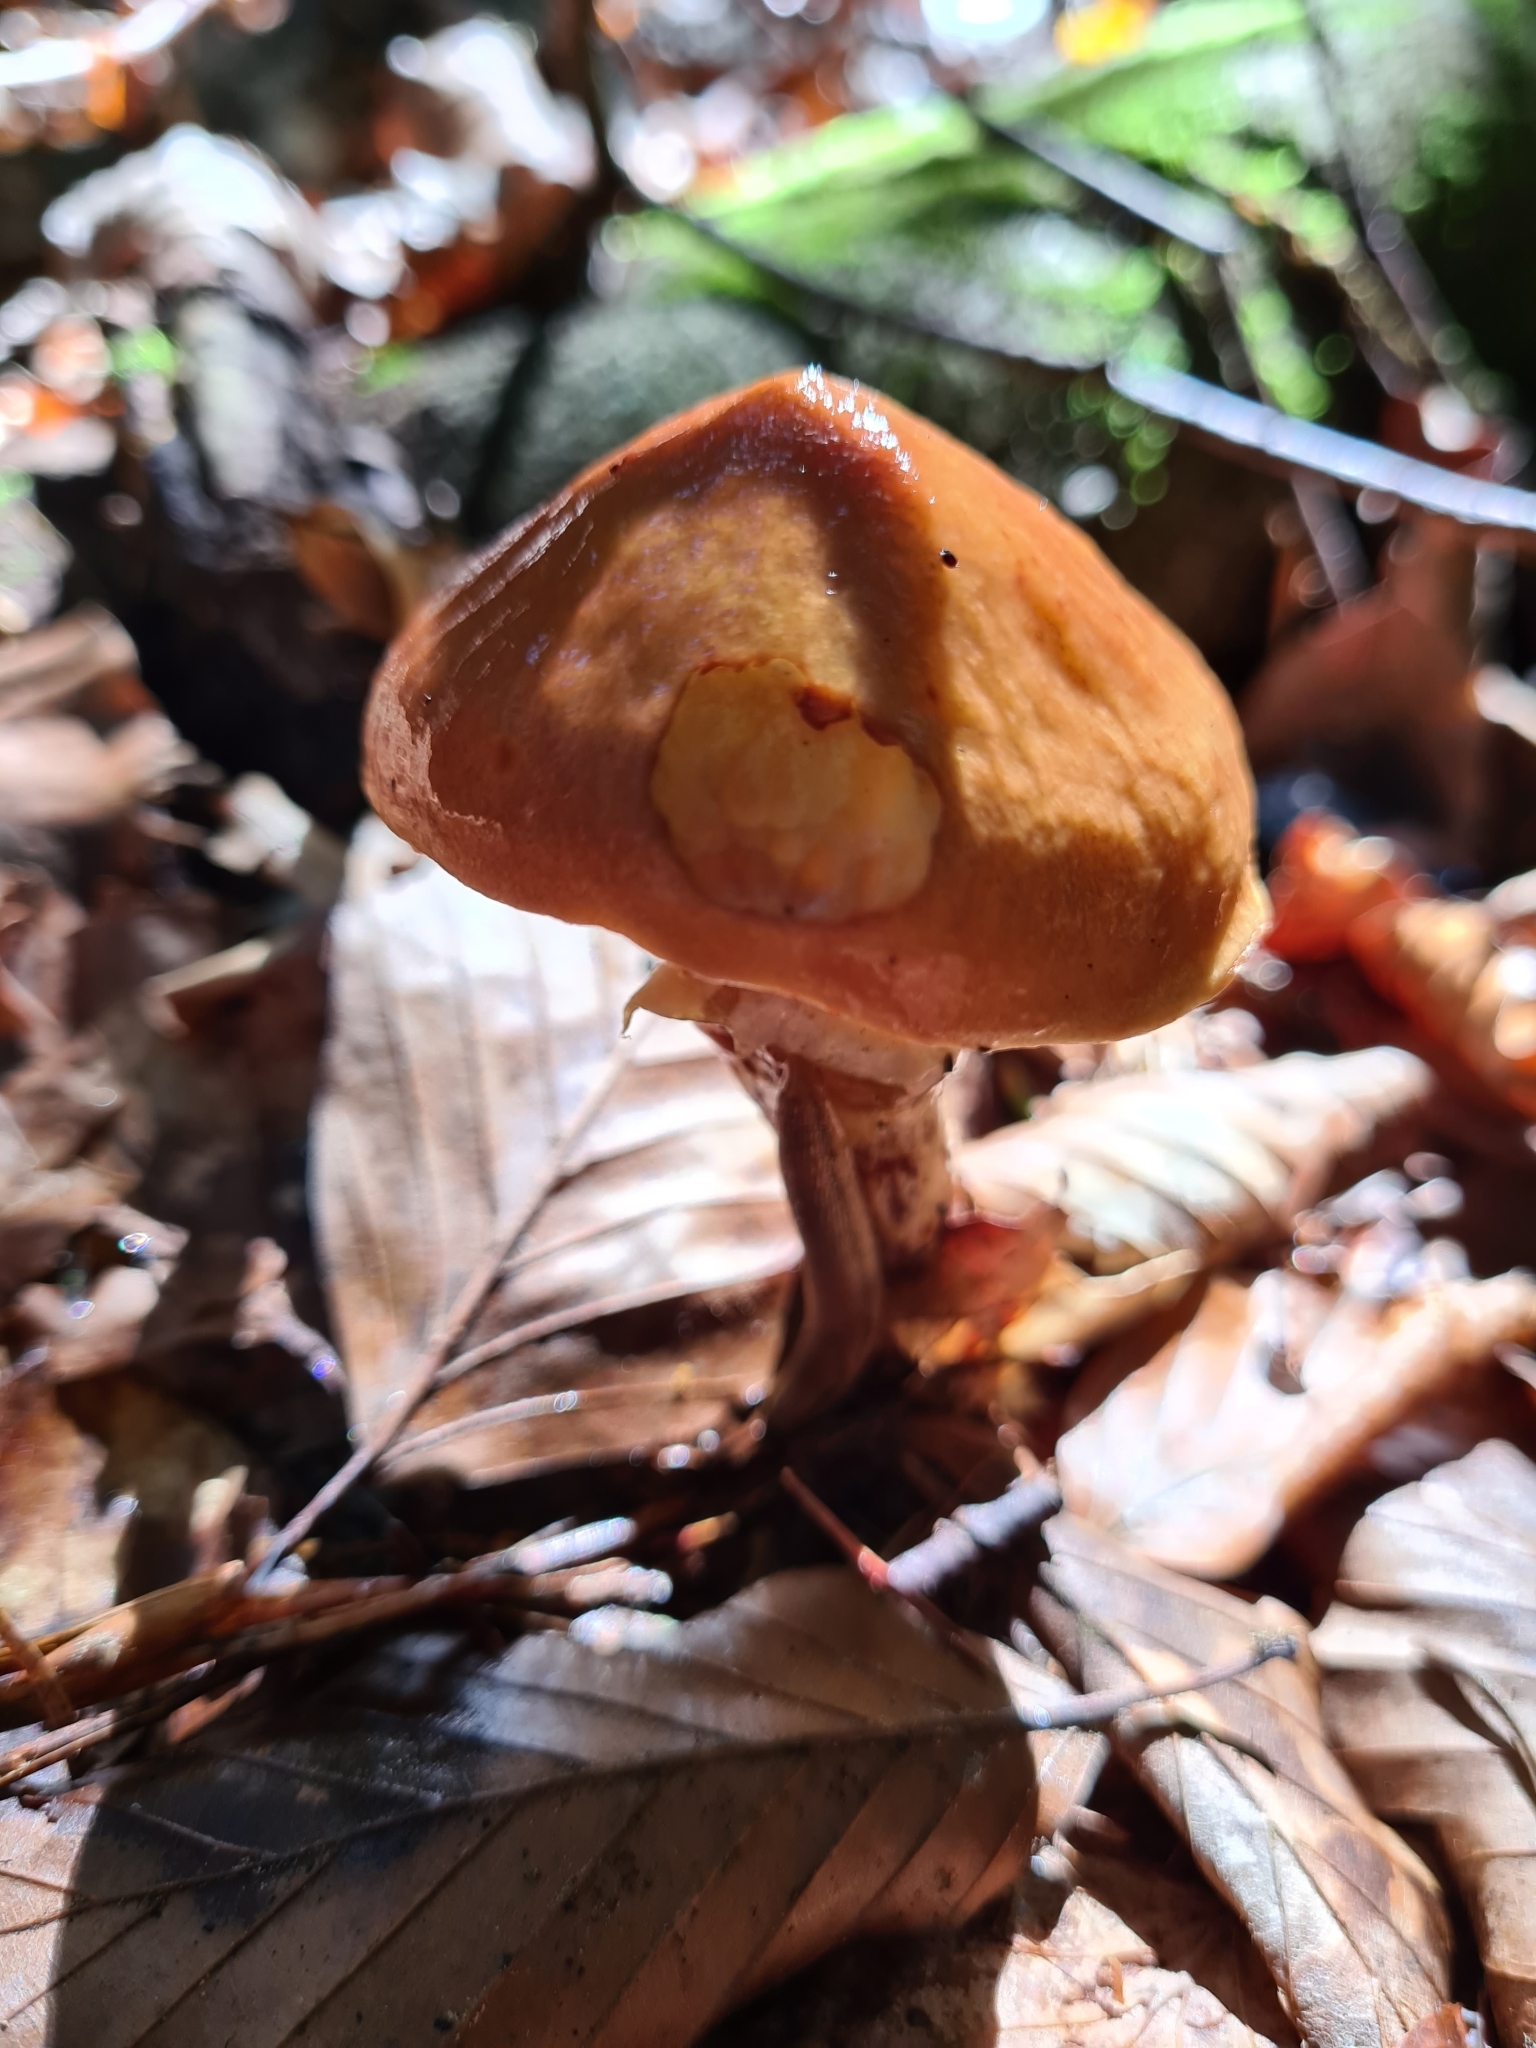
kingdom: Fungi
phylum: Basidiomycota
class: Agaricomycetes
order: Boletales
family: Suillaceae
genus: Suillus
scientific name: Suillus grevillei
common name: Larch bolete
